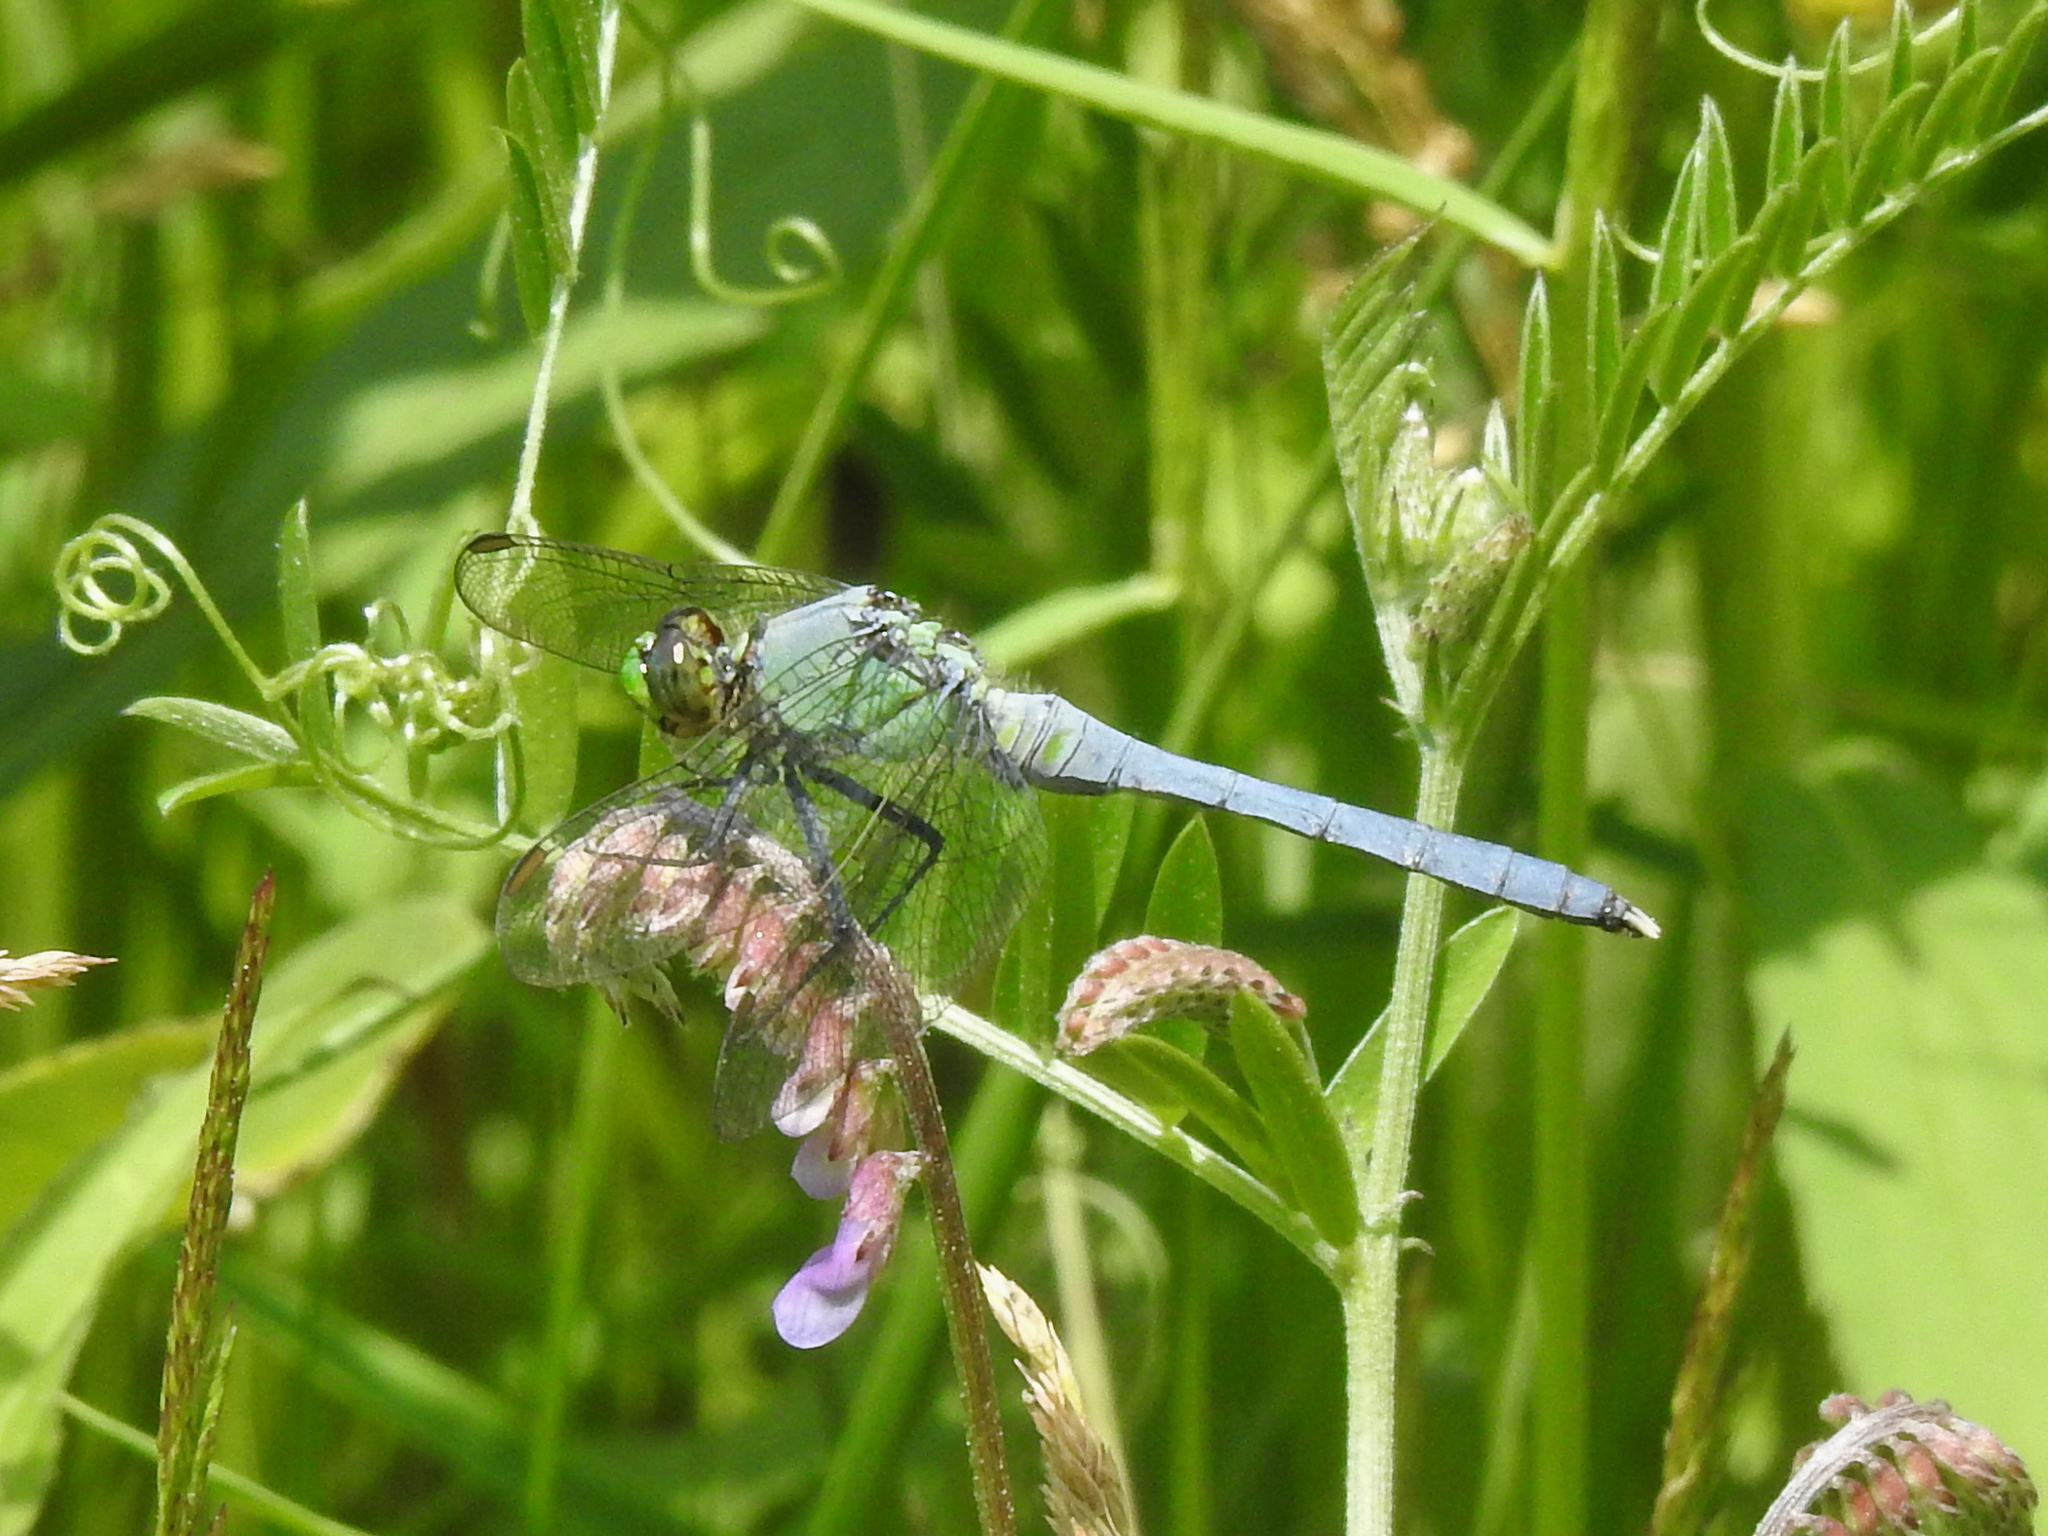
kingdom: Animalia
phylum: Arthropoda
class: Insecta
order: Odonata
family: Libellulidae
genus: Erythemis
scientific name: Erythemis simplicicollis
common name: Eastern pondhawk
